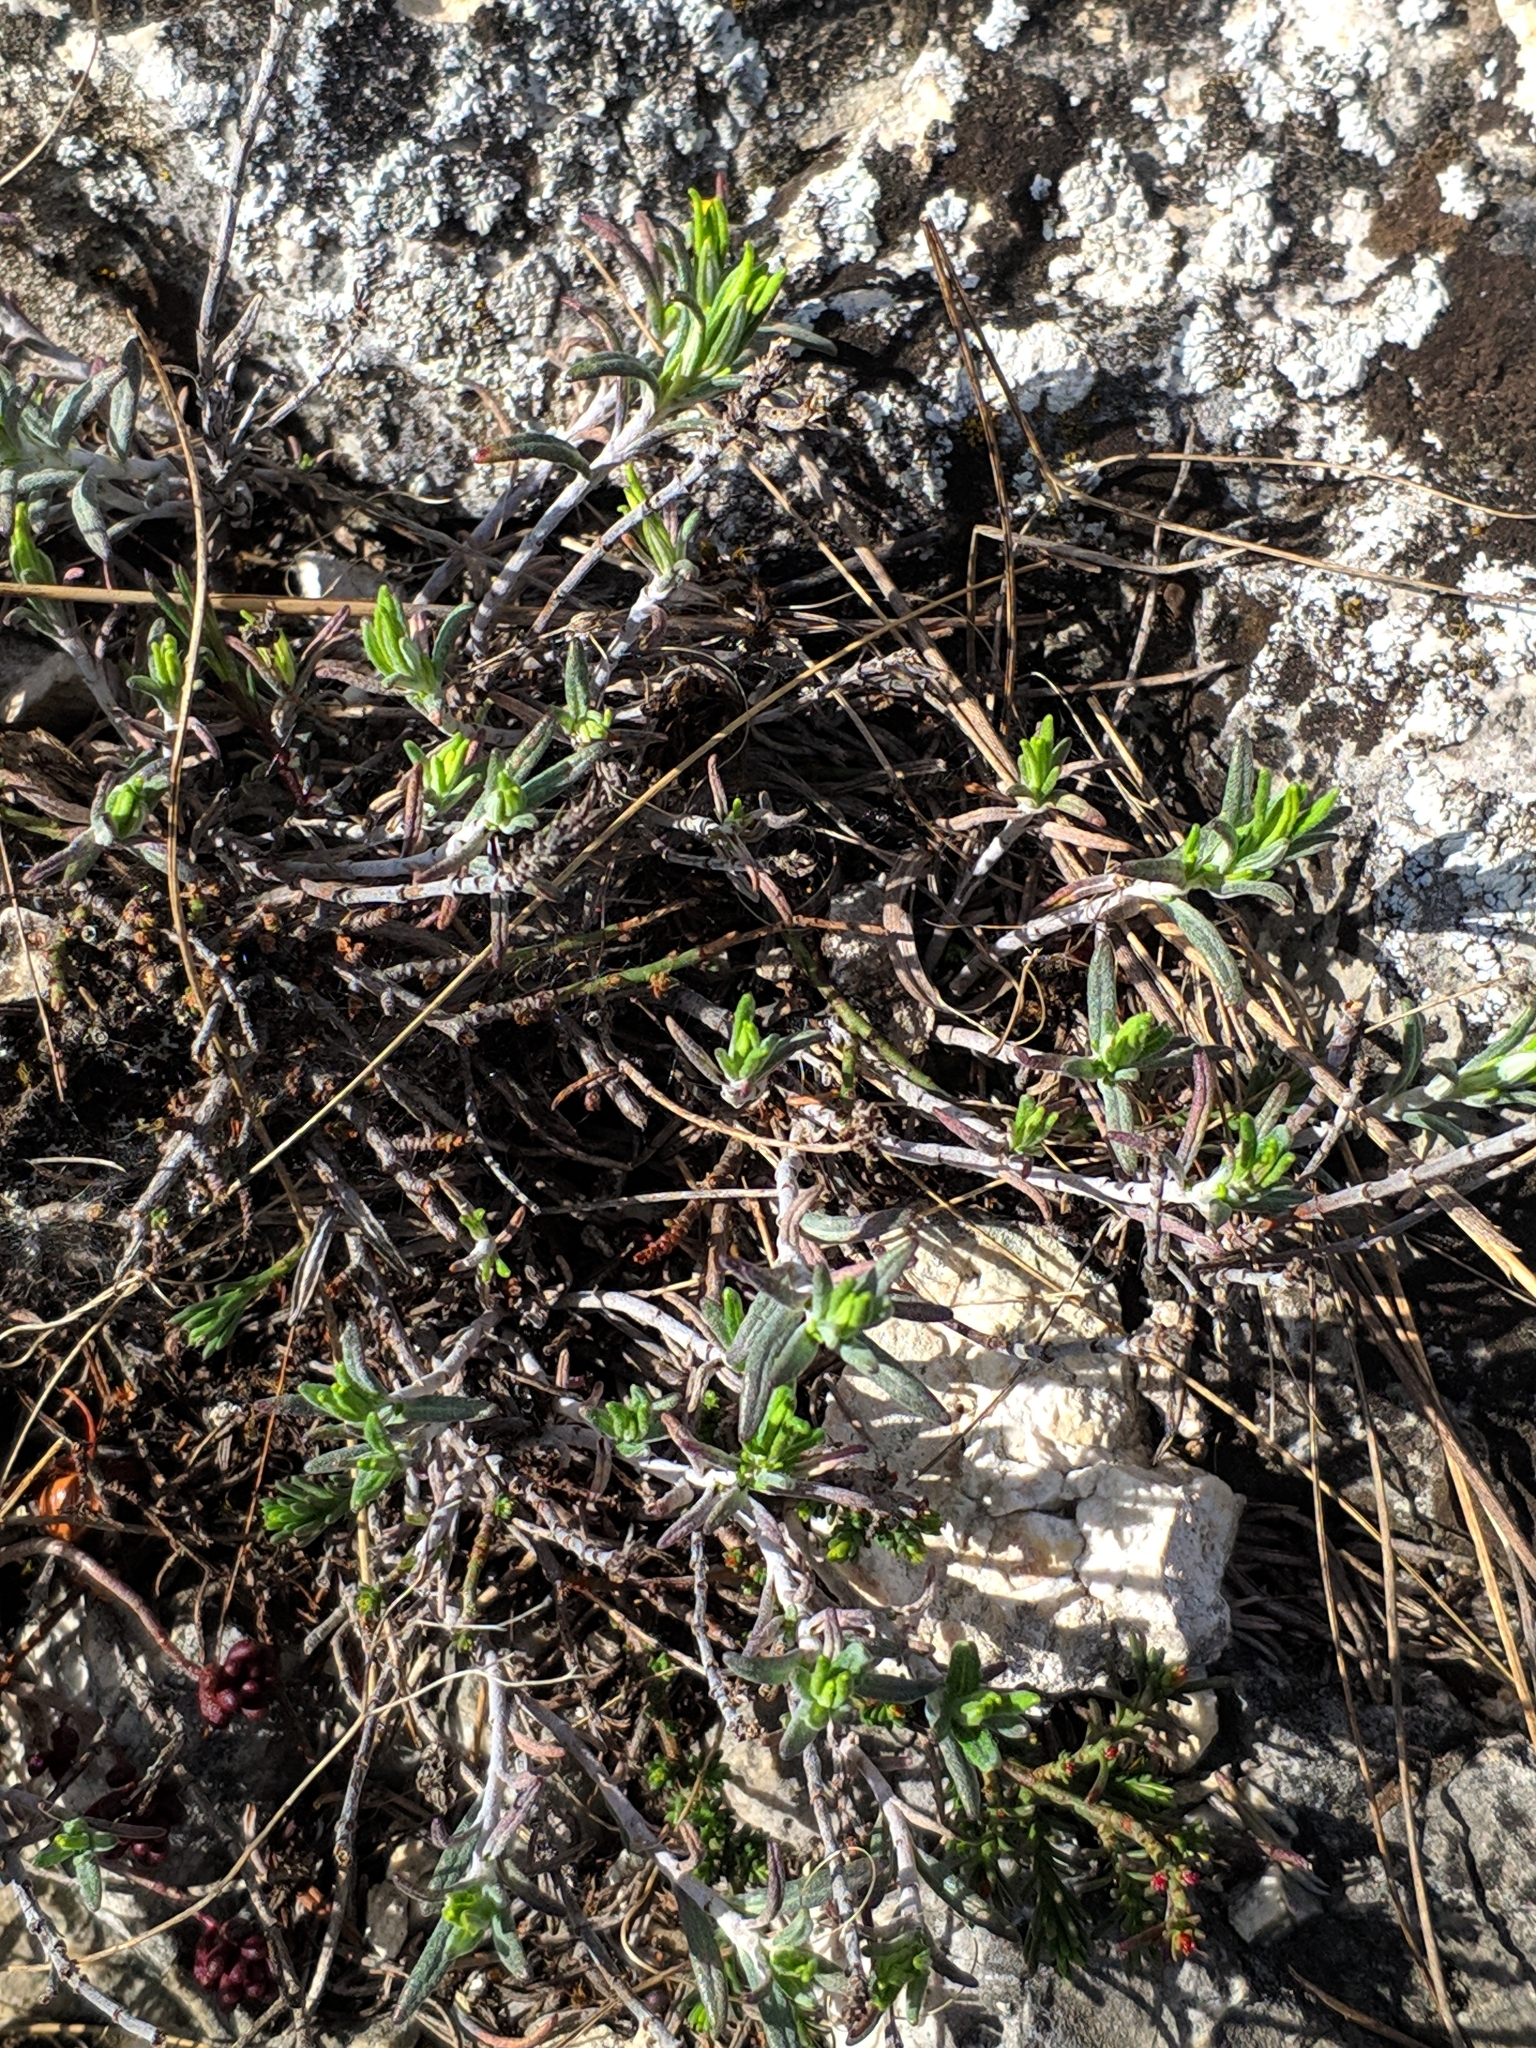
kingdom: Plantae
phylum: Tracheophyta
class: Magnoliopsida
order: Lamiales
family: Lamiaceae
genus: Teucrium
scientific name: Teucrium montanum
